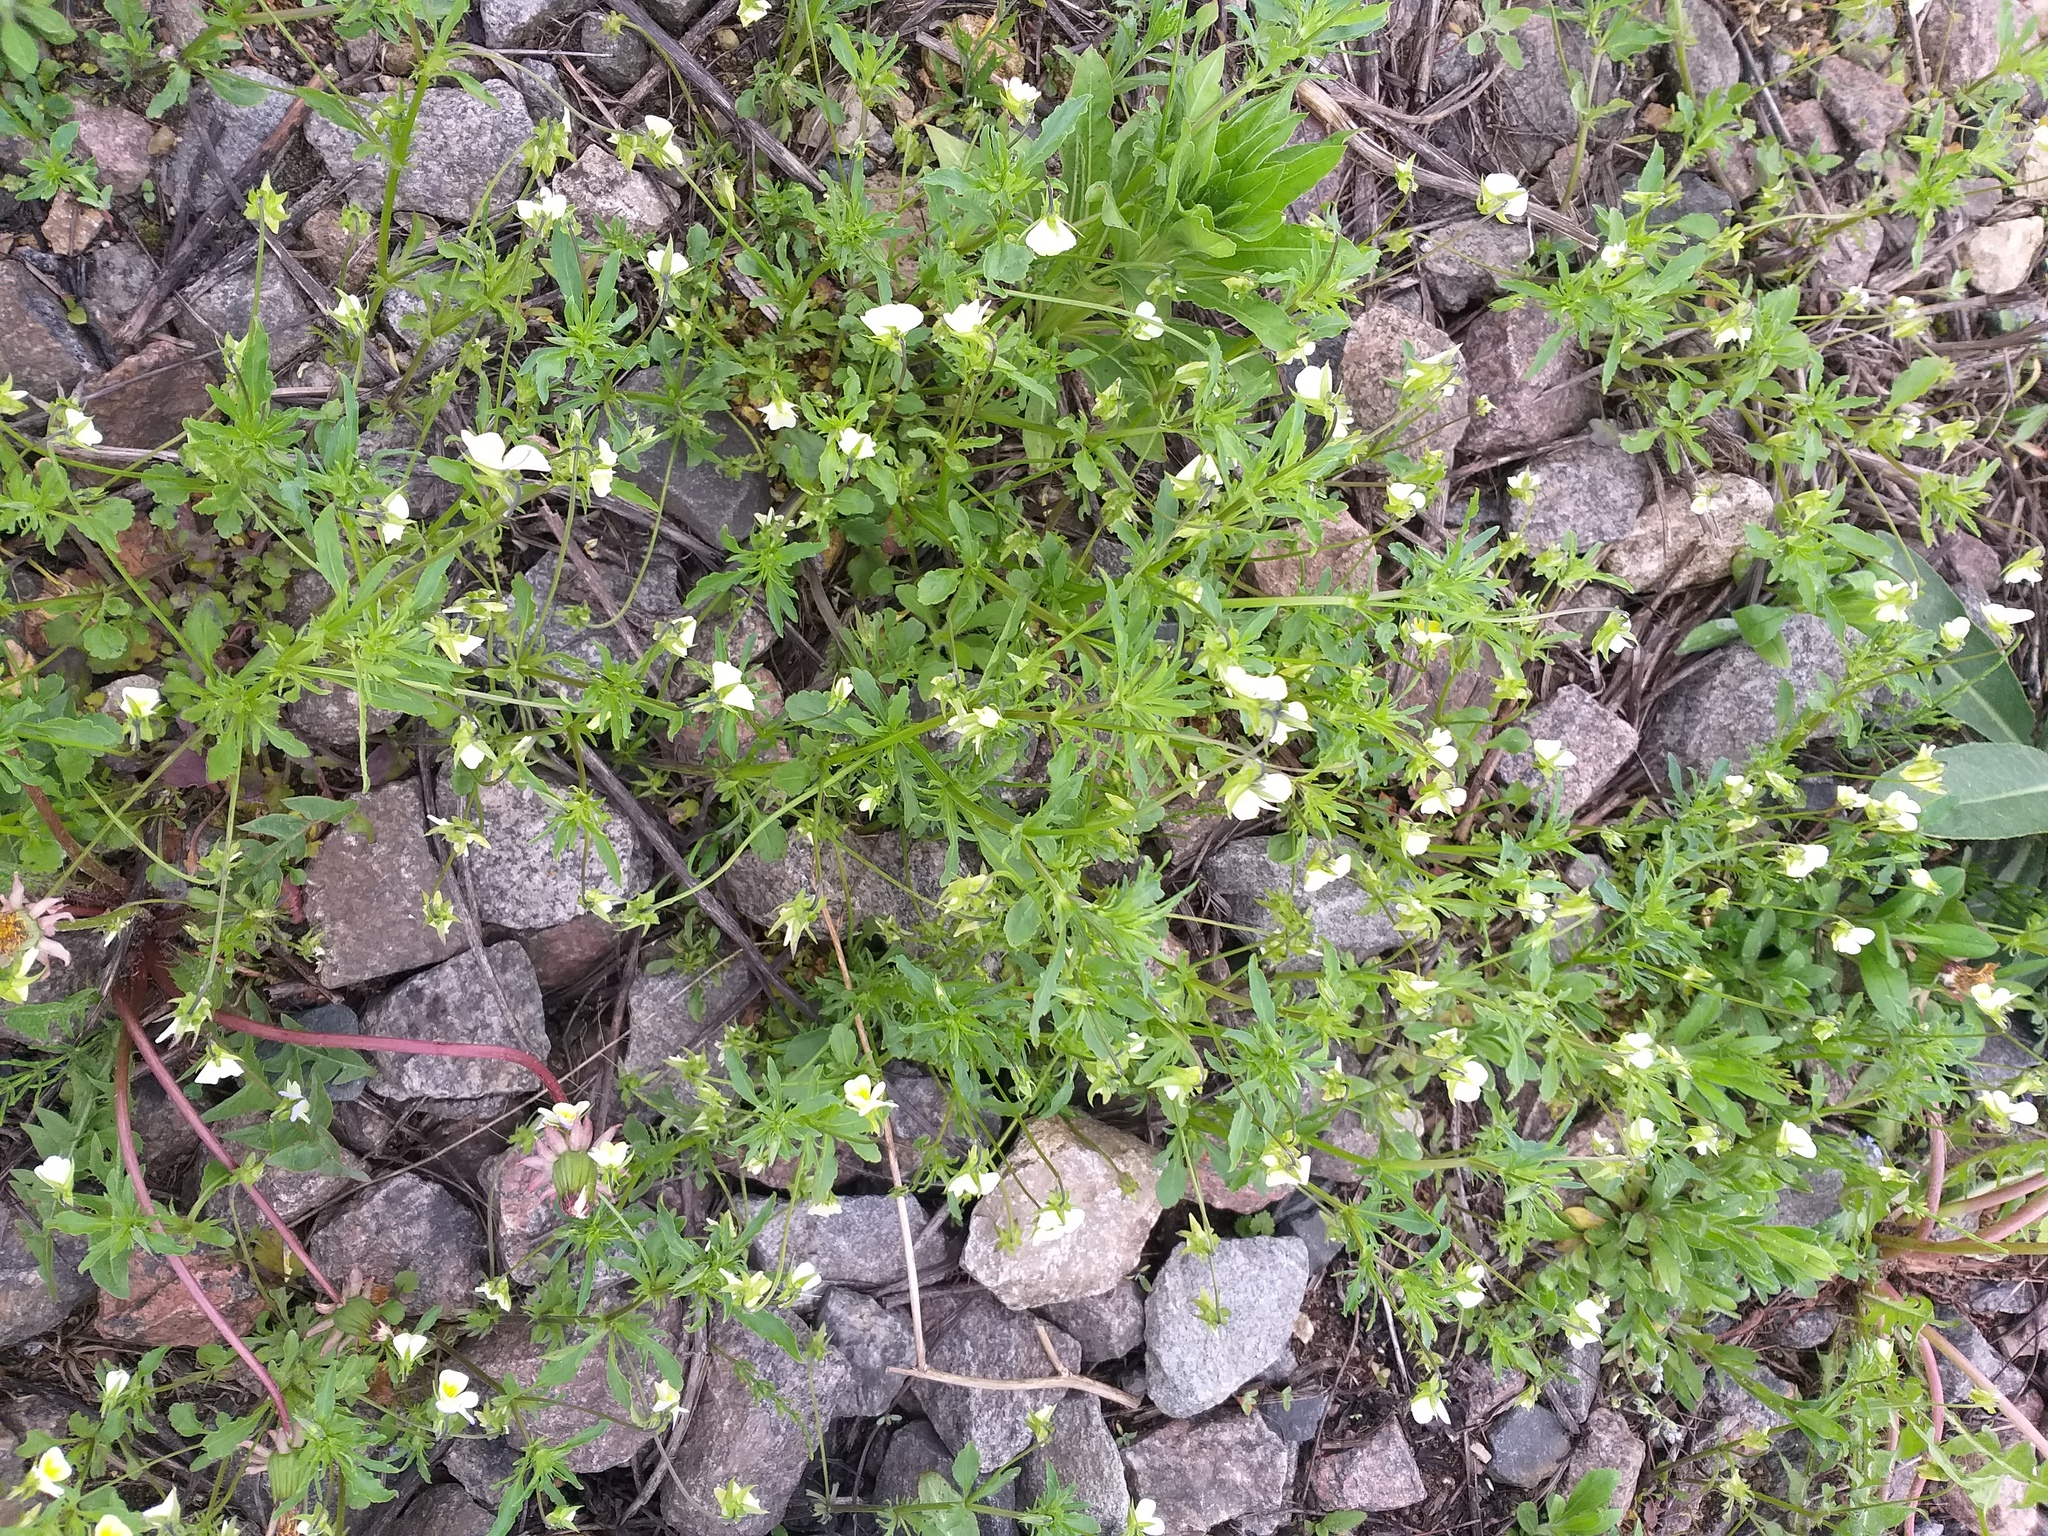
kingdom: Plantae
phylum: Tracheophyta
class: Magnoliopsida
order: Malpighiales
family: Violaceae
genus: Viola
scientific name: Viola contempta
